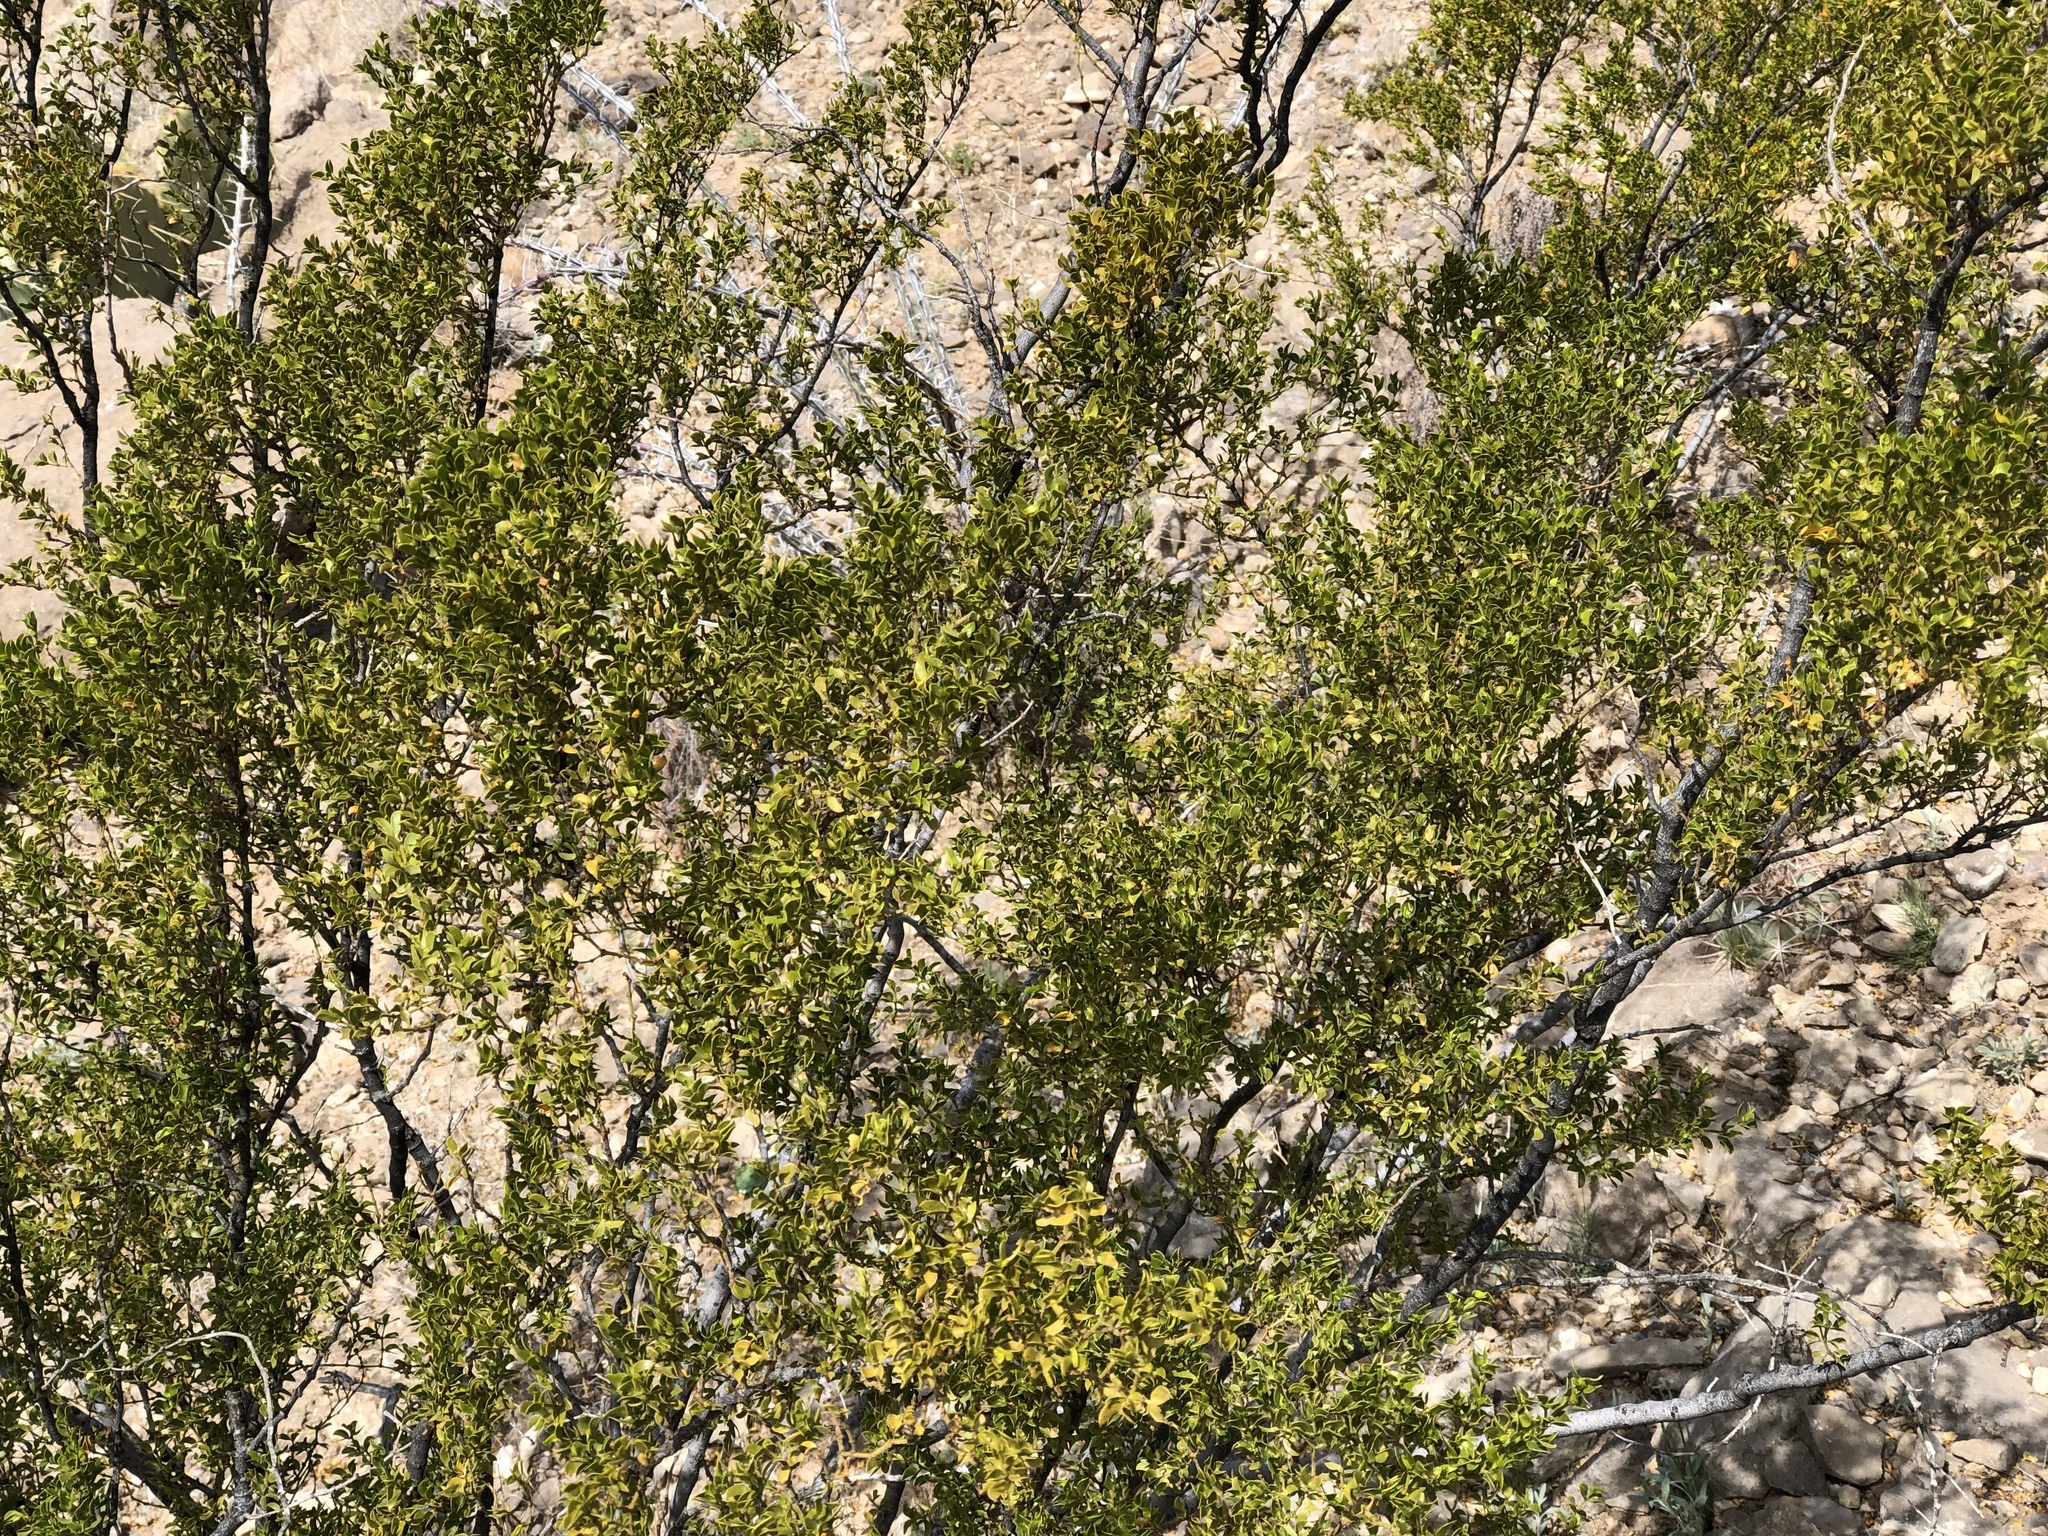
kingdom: Plantae
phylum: Tracheophyta
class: Magnoliopsida
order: Zygophyllales
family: Zygophyllaceae
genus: Larrea
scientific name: Larrea tridentata
